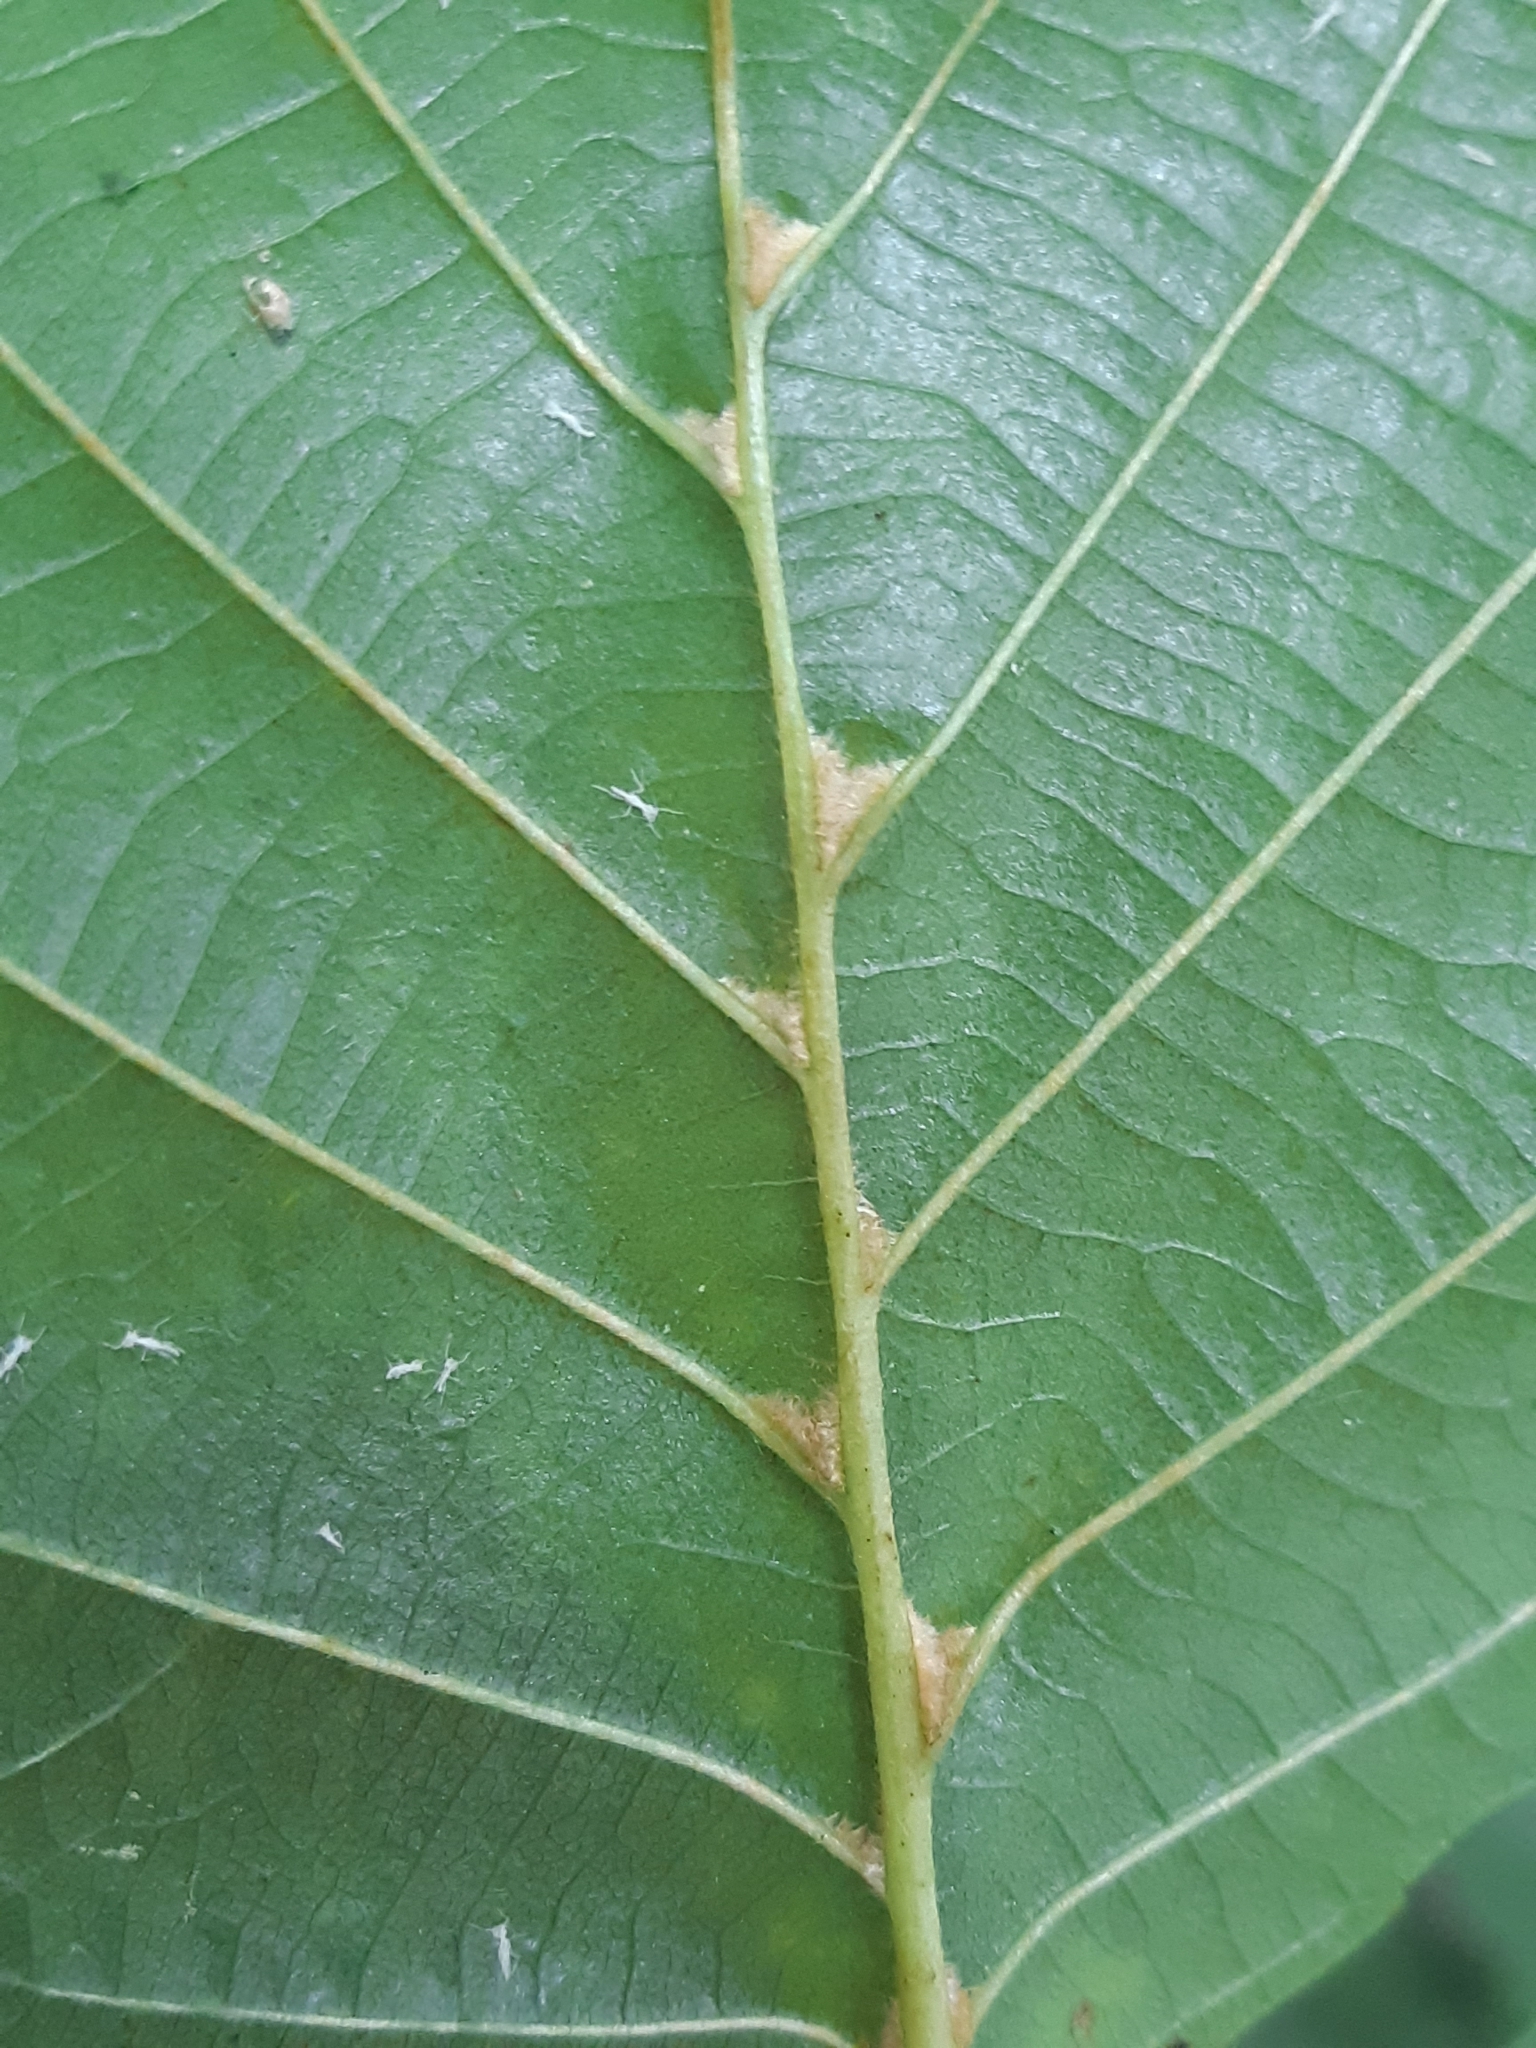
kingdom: Animalia
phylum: Arthropoda
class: Arachnida
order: Trombidiformes
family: Eriophyidae
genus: Eriophyes
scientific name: Eriophyes inangulis
